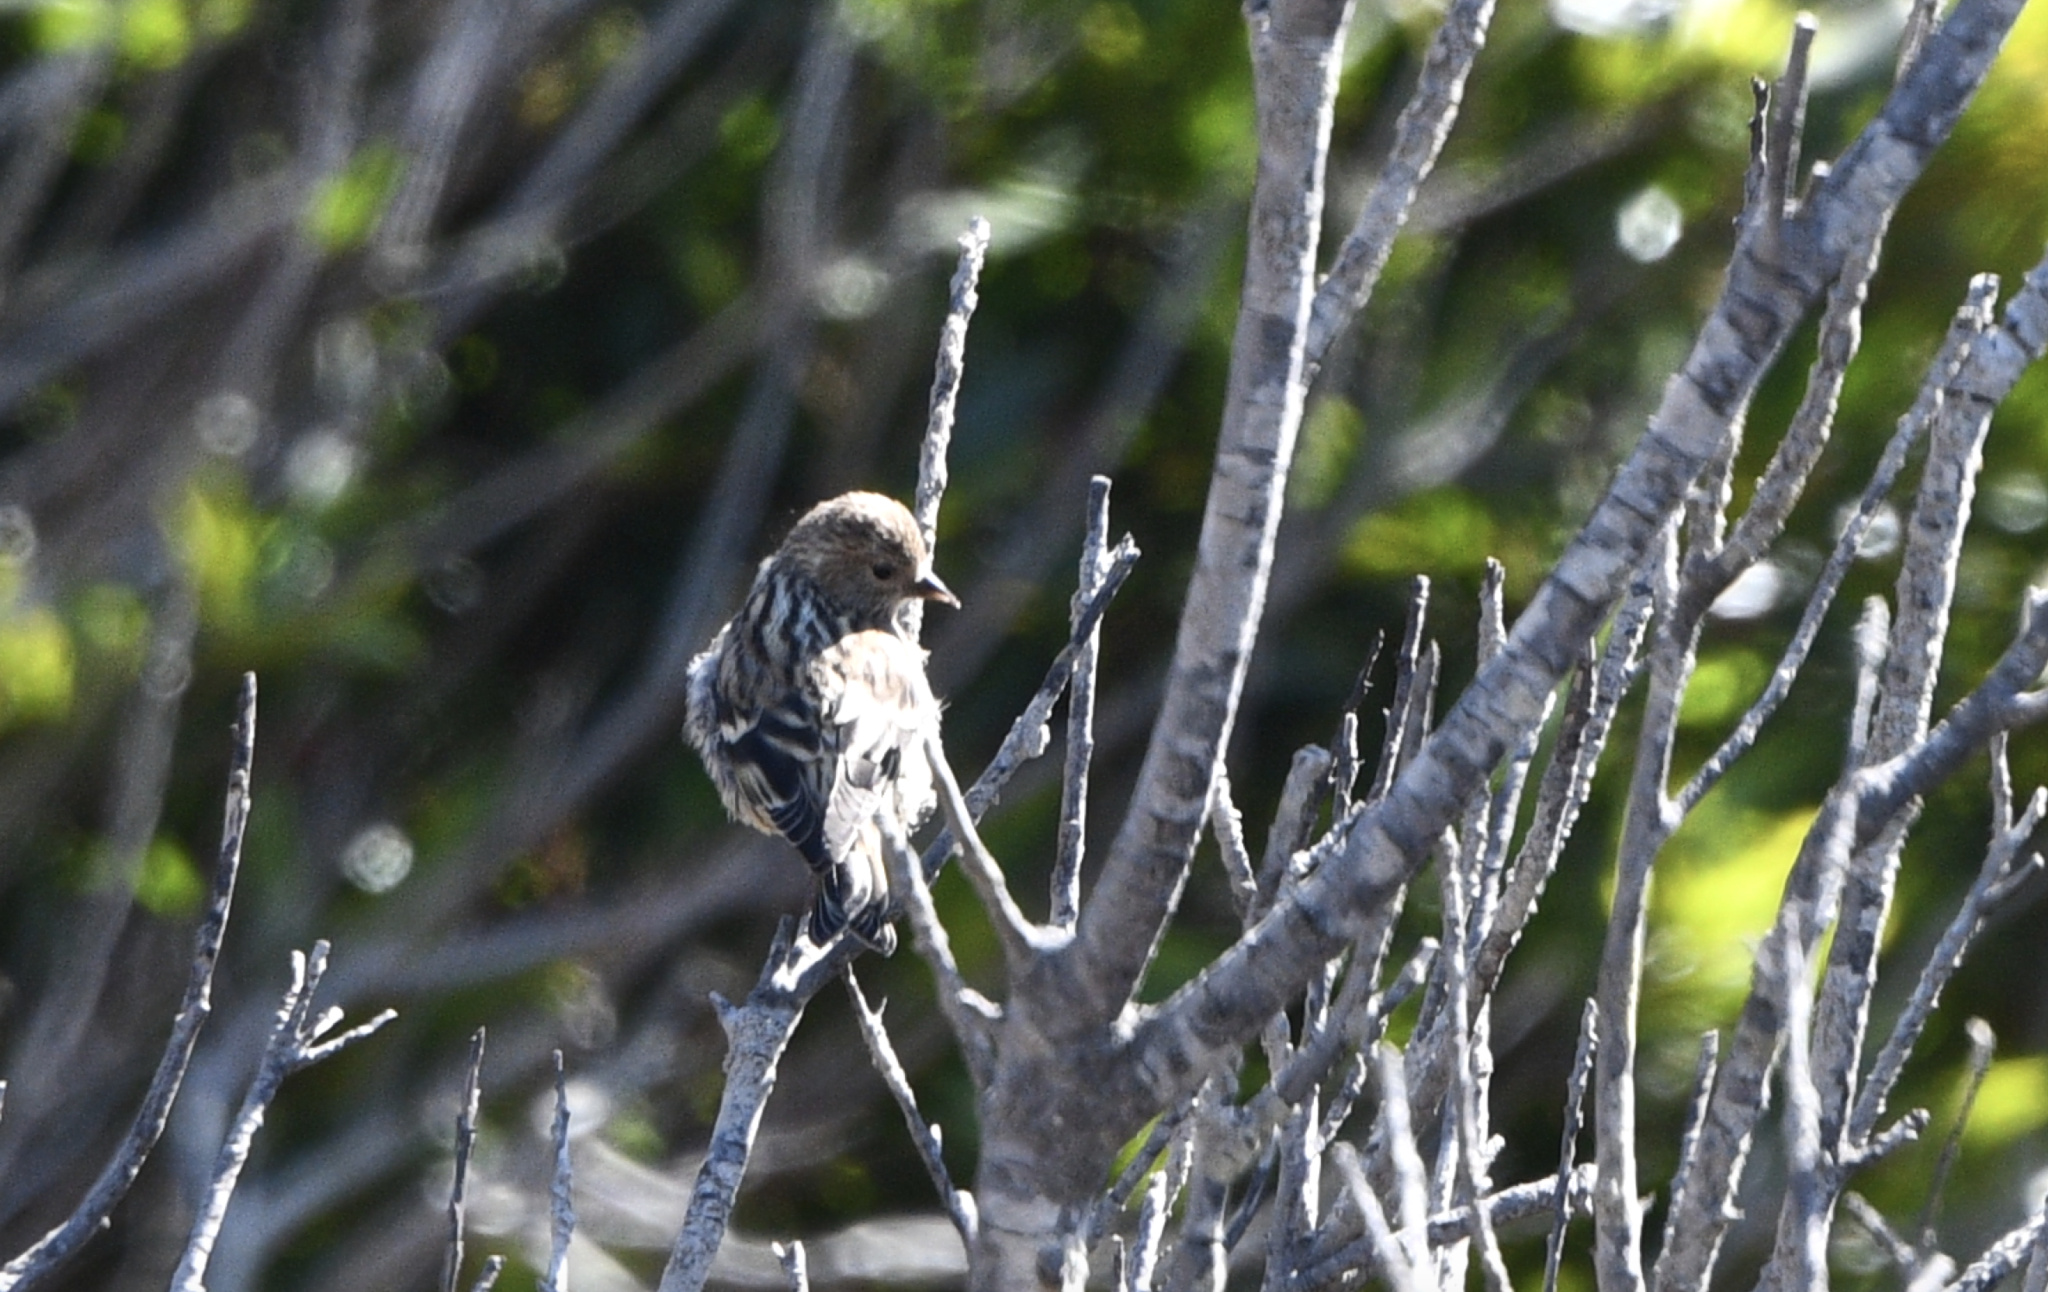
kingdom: Animalia
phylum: Chordata
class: Aves
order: Passeriformes
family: Fringillidae
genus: Spinus
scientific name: Spinus pinus
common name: Pine siskin
